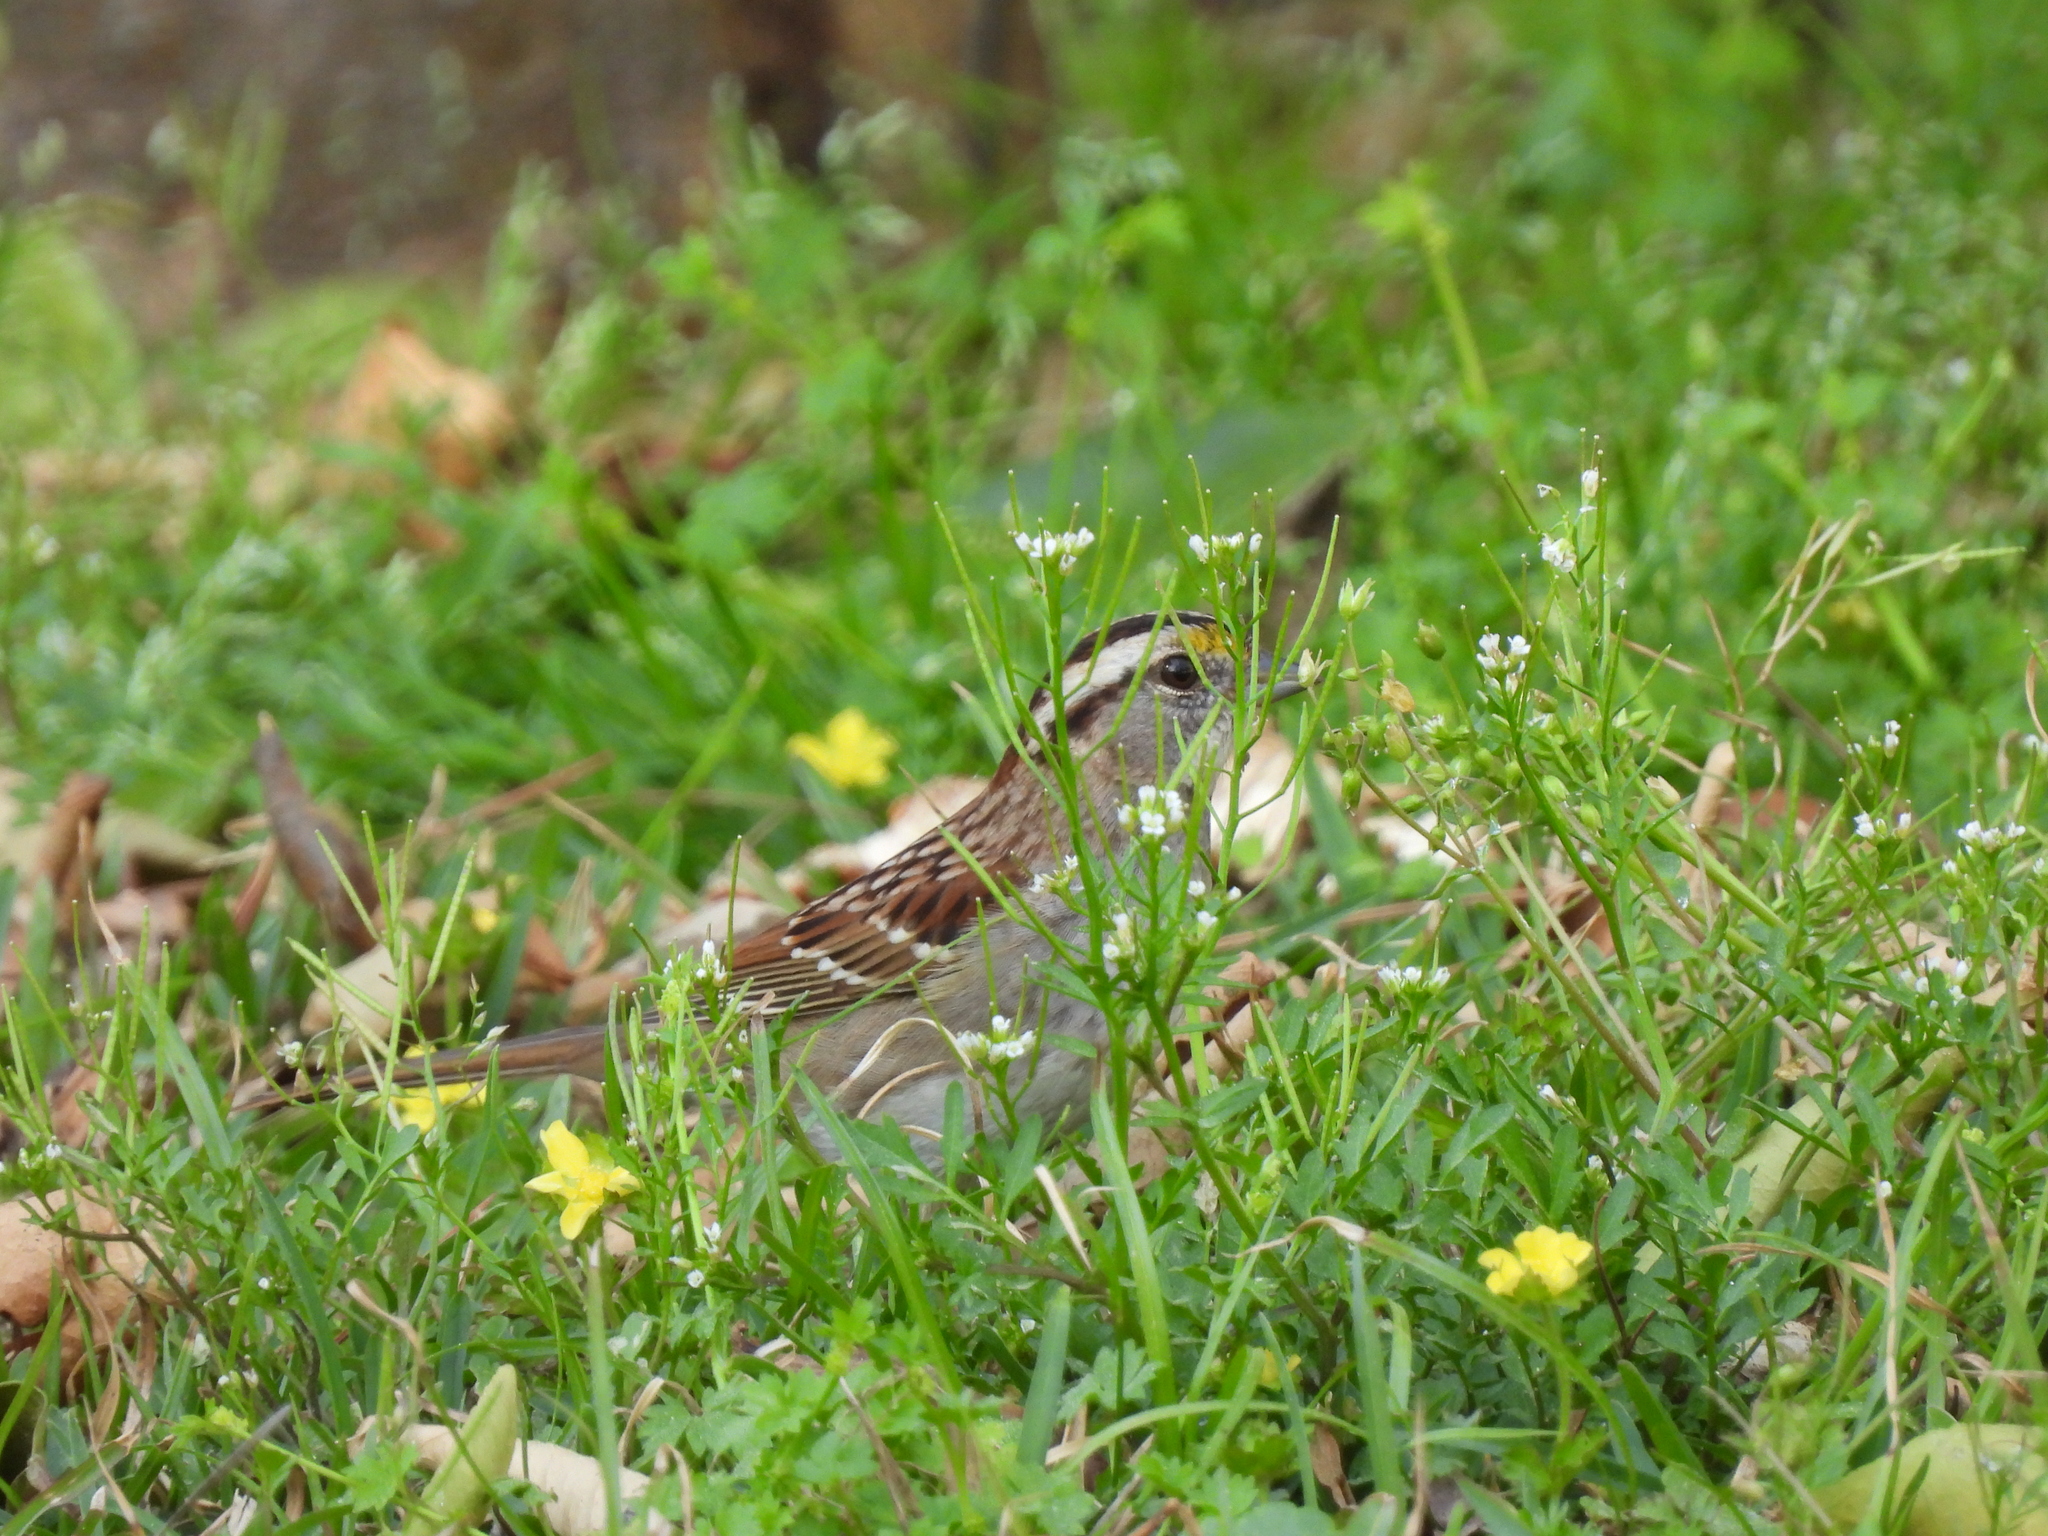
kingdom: Animalia
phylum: Chordata
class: Aves
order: Passeriformes
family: Passerellidae
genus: Zonotrichia
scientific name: Zonotrichia albicollis
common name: White-throated sparrow
